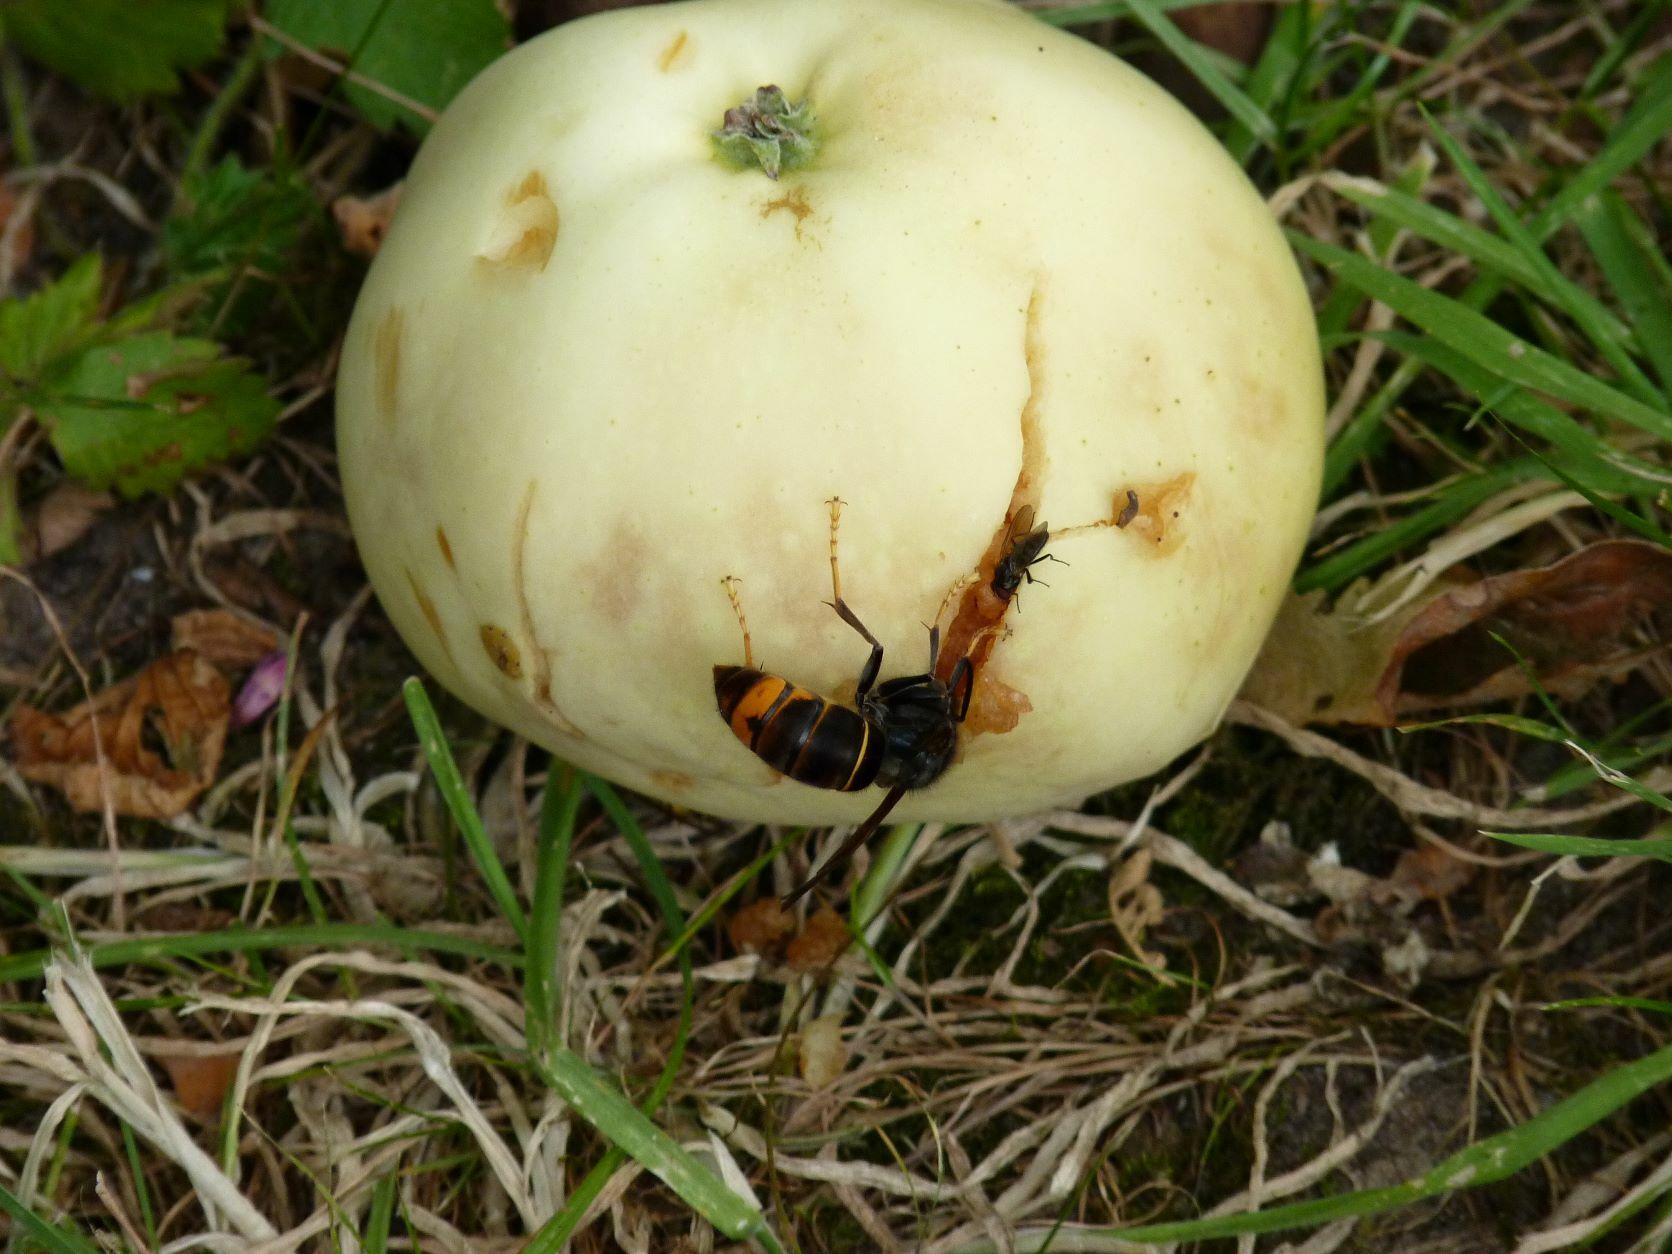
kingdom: Animalia
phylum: Arthropoda
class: Insecta
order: Hymenoptera
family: Vespidae
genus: Vespa
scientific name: Vespa velutina
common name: Asian hornet
